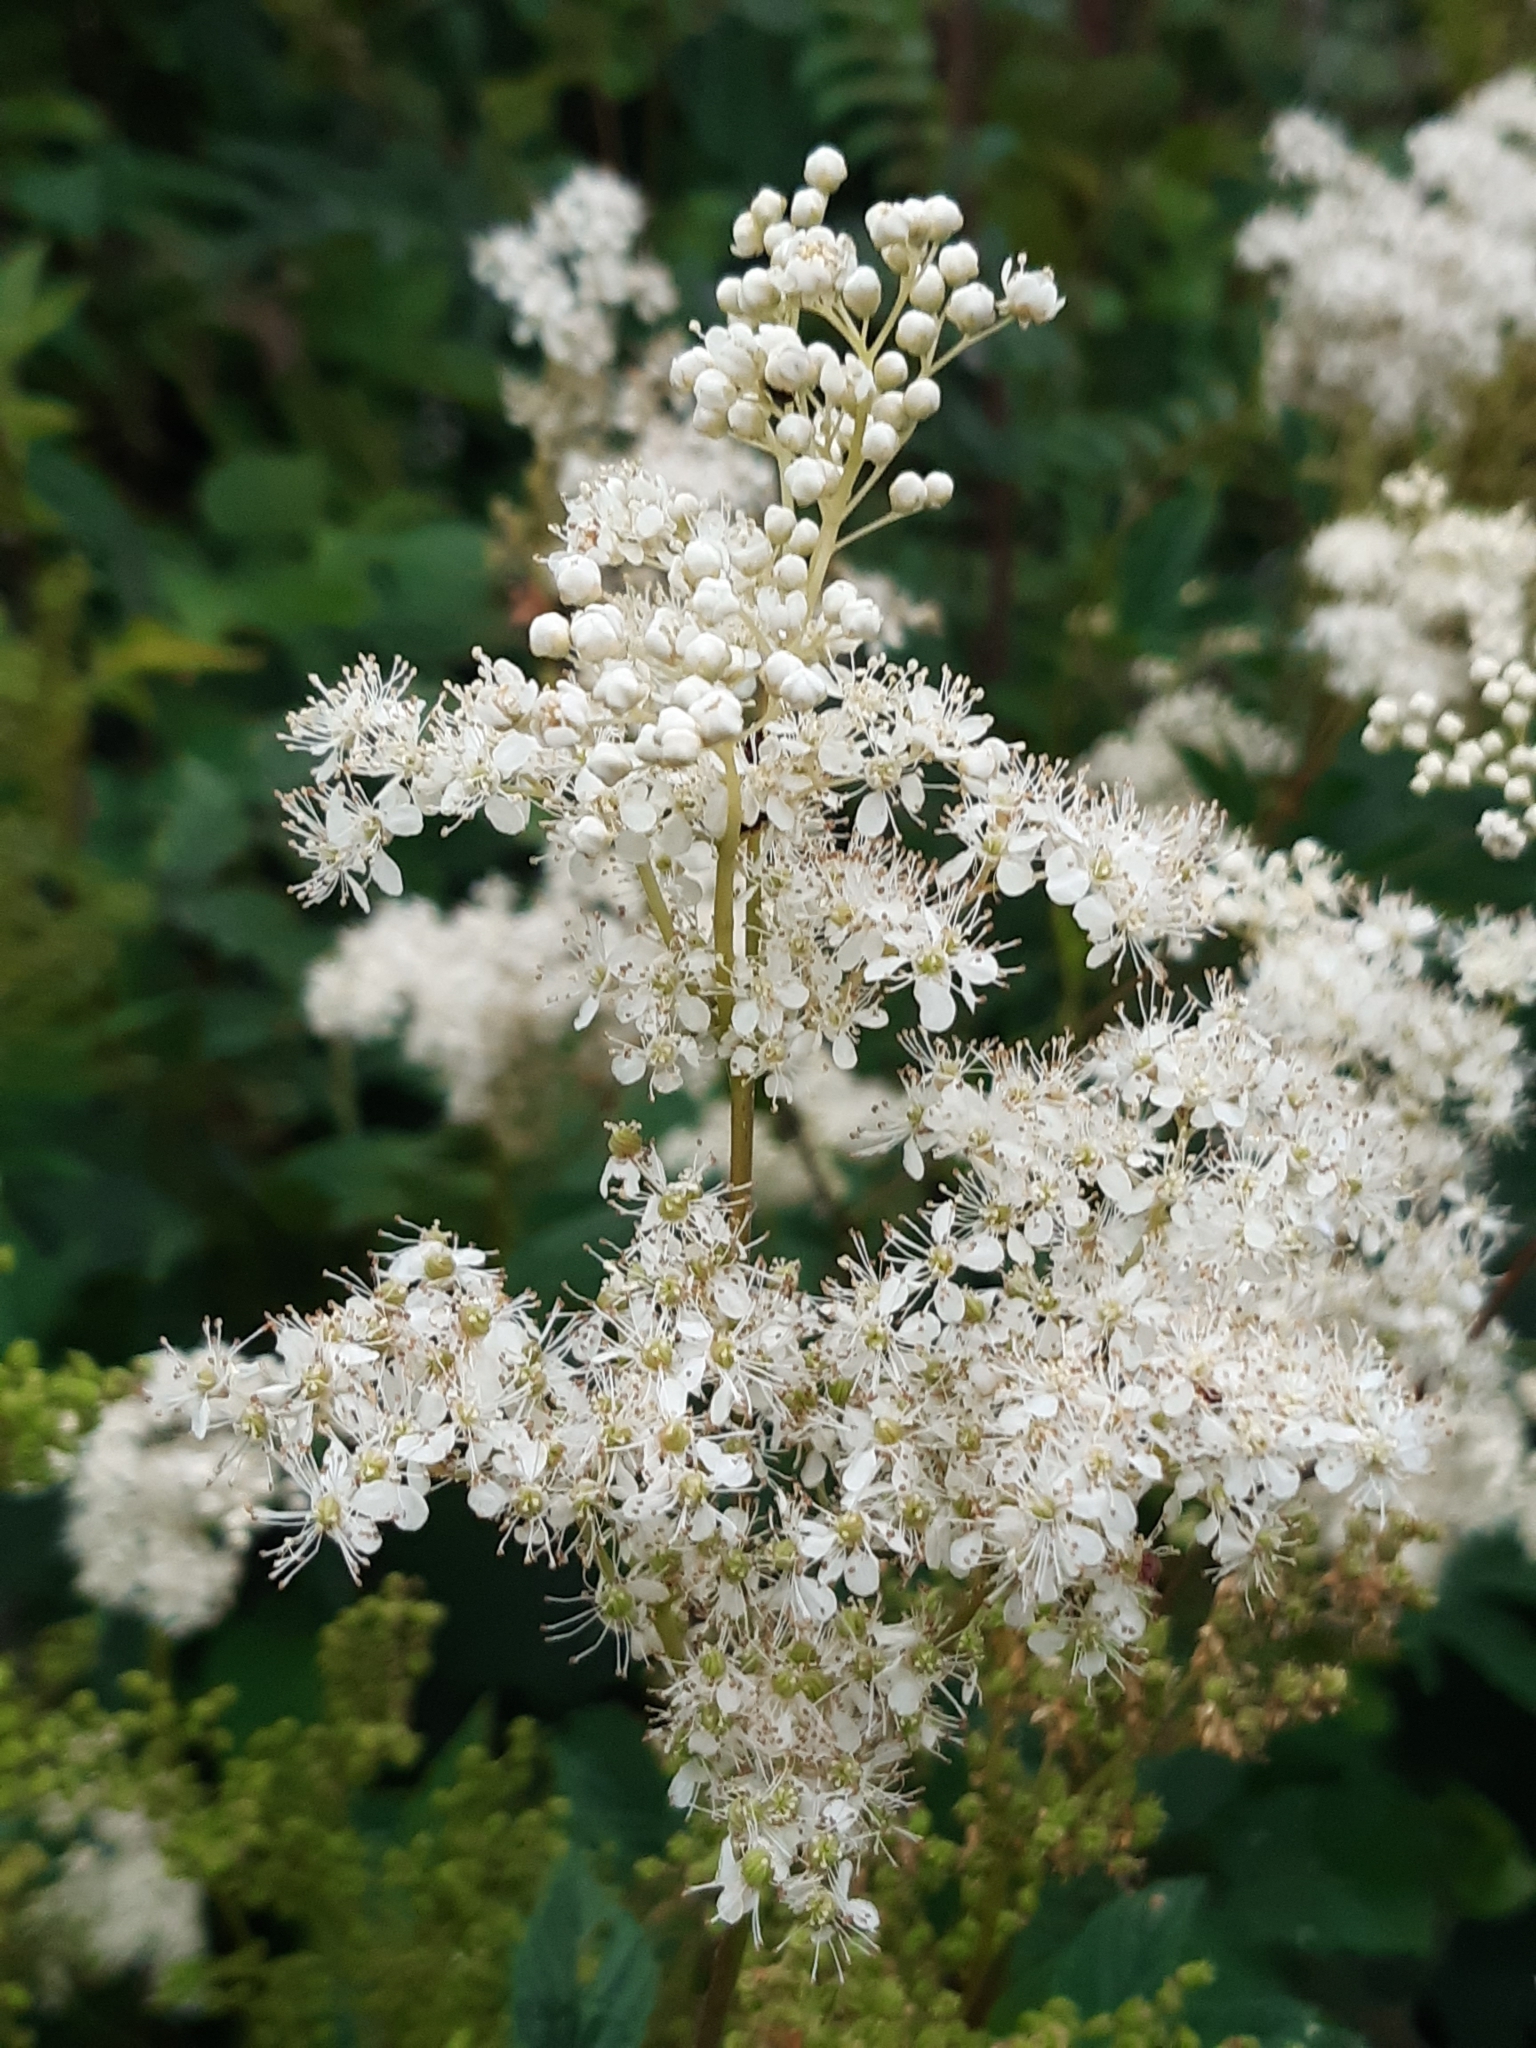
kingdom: Plantae
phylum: Tracheophyta
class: Magnoliopsida
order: Rosales
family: Rosaceae
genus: Filipendula
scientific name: Filipendula ulmaria
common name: Meadowsweet
